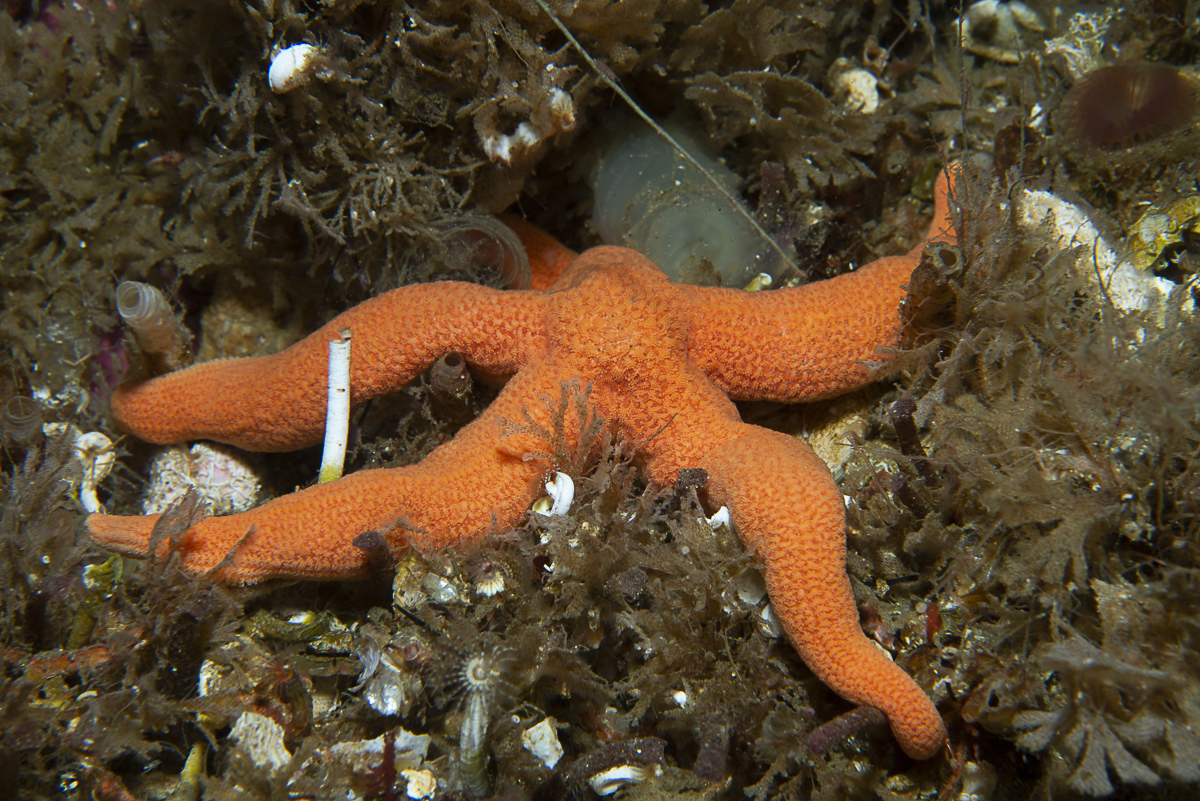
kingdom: Animalia
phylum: Echinodermata
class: Asteroidea
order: Forcipulatida
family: Stichasteridae
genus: Stichastrella
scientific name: Stichastrella rosea
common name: Rosy starfish
